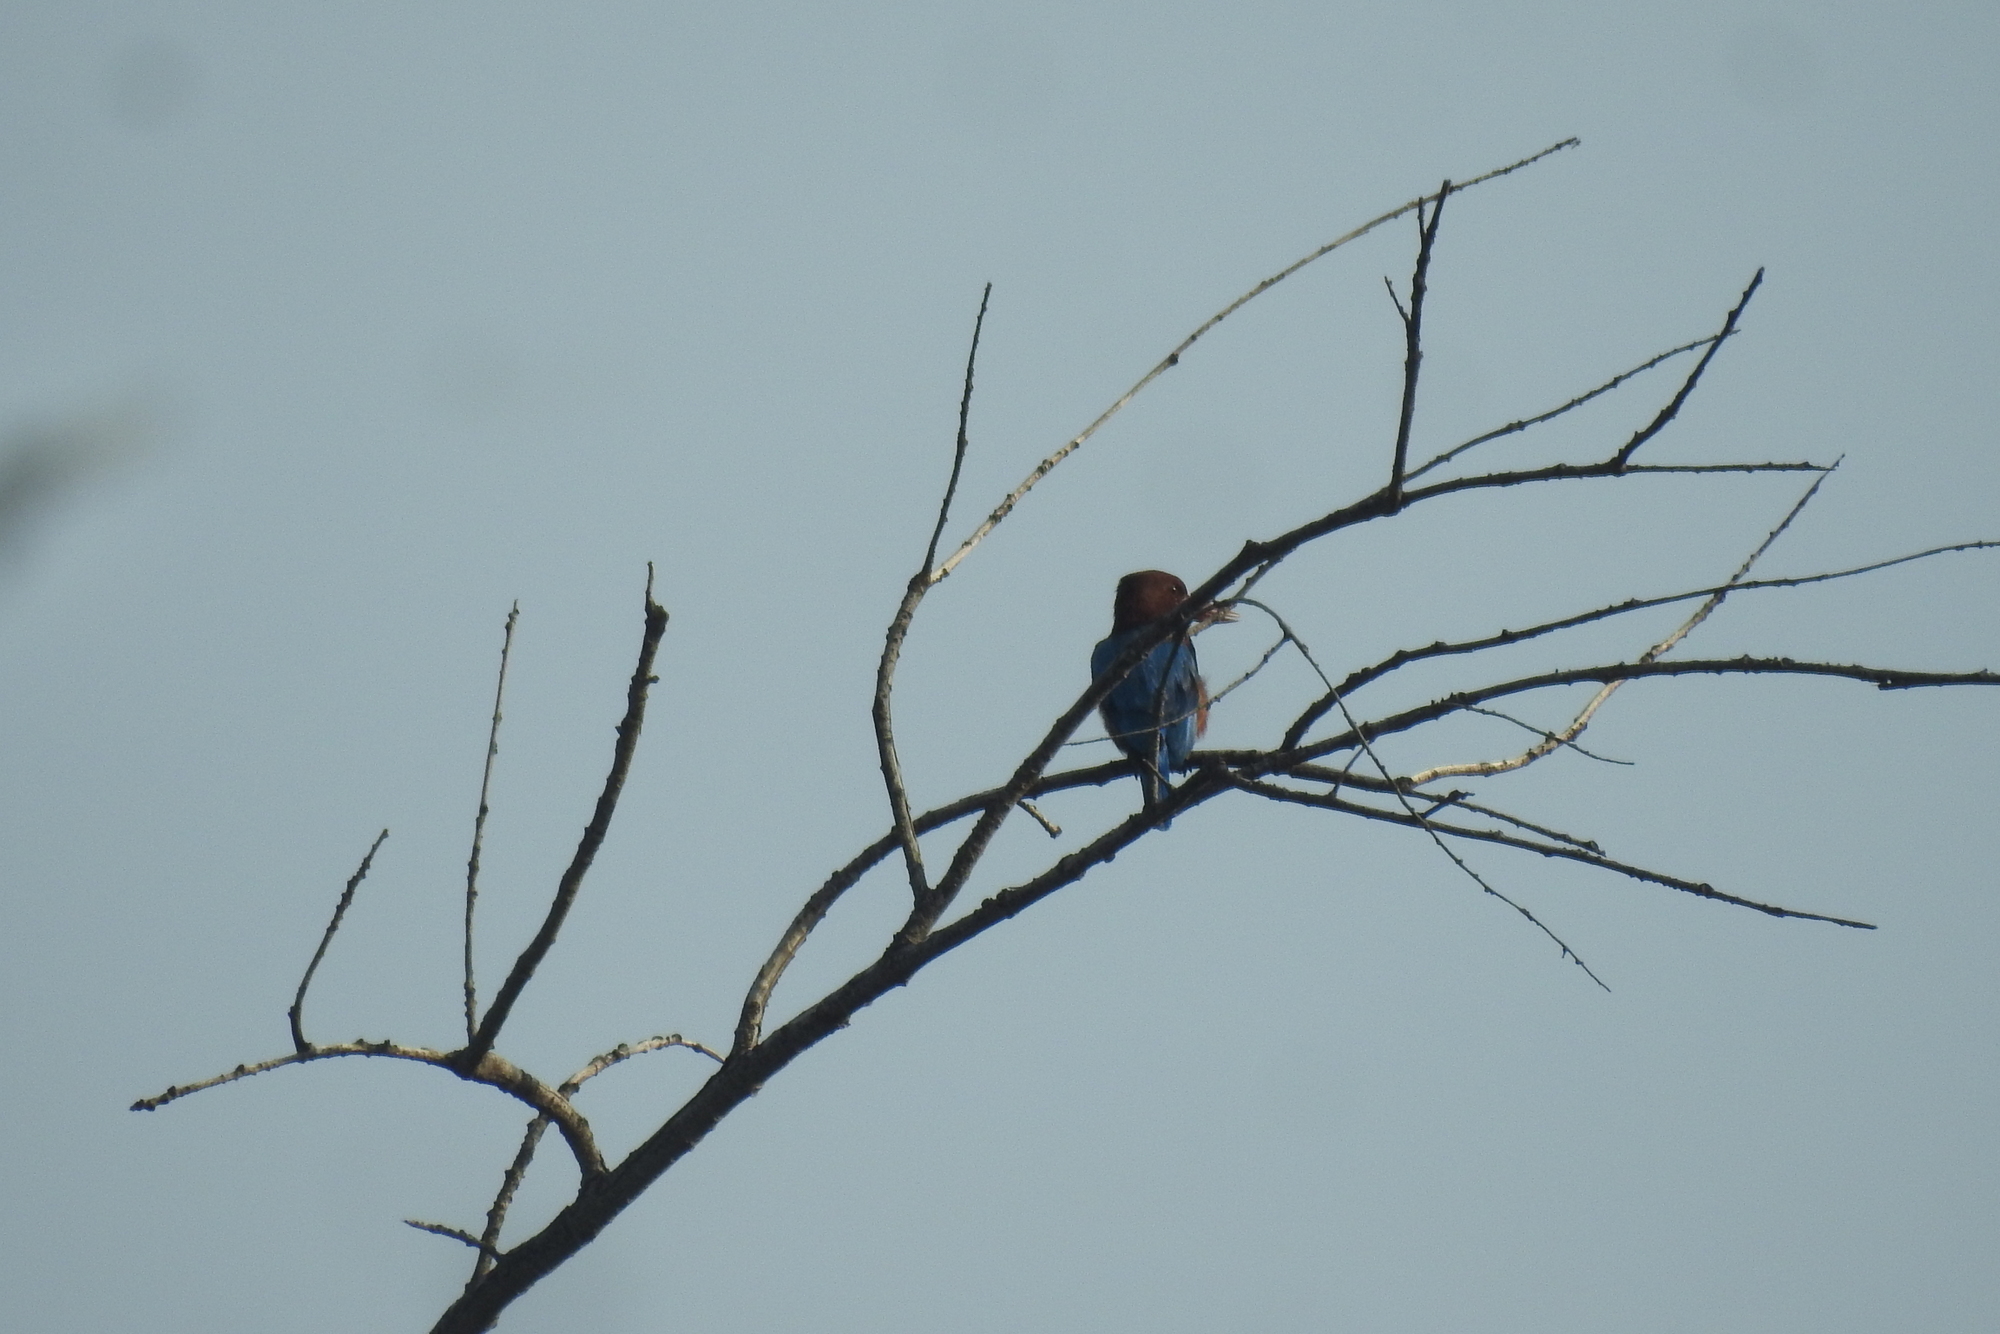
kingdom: Animalia
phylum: Chordata
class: Aves
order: Coraciiformes
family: Alcedinidae
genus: Halcyon
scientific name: Halcyon smyrnensis
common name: White-throated kingfisher
